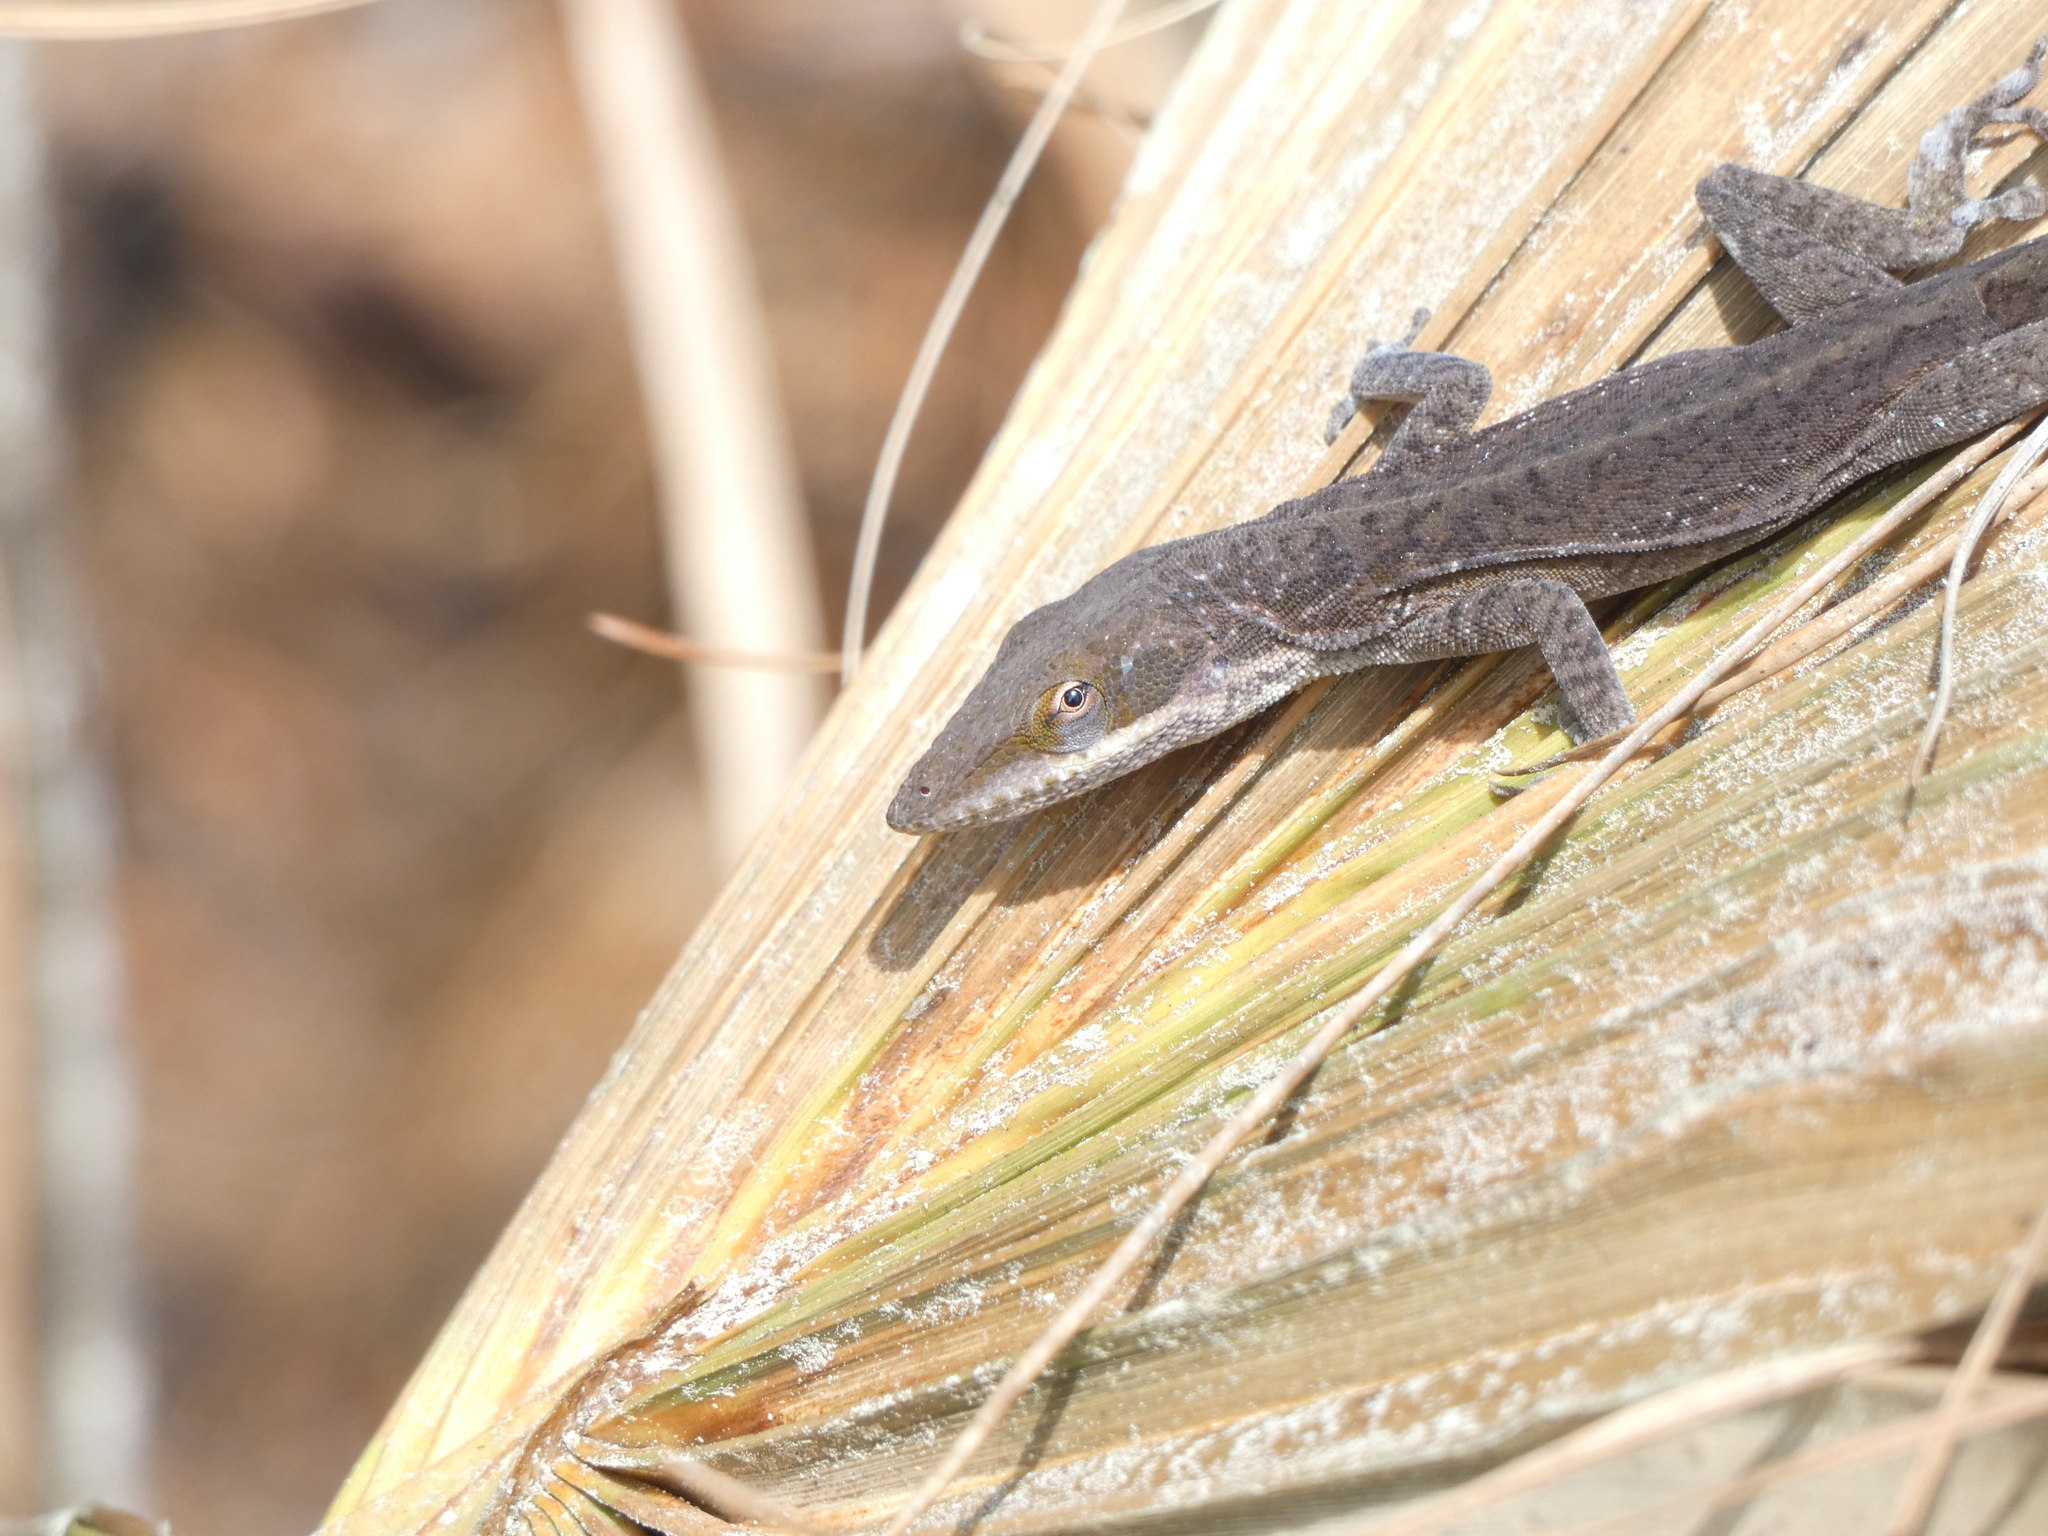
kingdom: Animalia
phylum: Chordata
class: Squamata
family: Dactyloidae
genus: Anolis
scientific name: Anolis carolinensis
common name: Green anole
